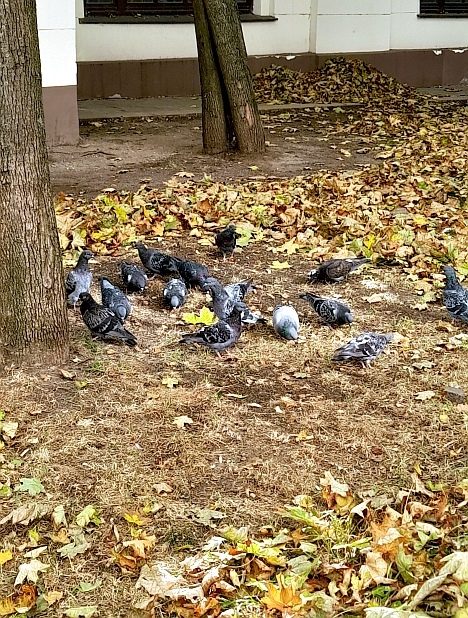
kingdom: Animalia
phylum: Chordata
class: Aves
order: Columbiformes
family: Columbidae
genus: Columba
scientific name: Columba livia
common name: Rock pigeon
